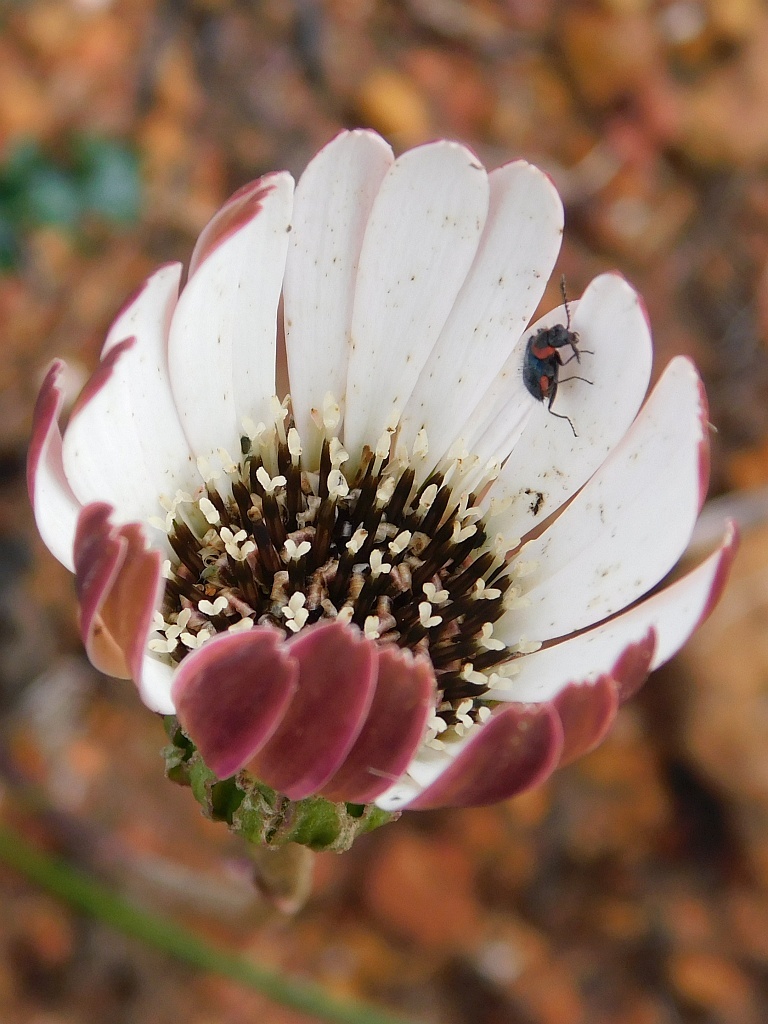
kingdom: Plantae
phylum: Tracheophyta
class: Magnoliopsida
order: Asterales
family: Asteraceae
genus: Gerbera
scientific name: Gerbera linnaei
